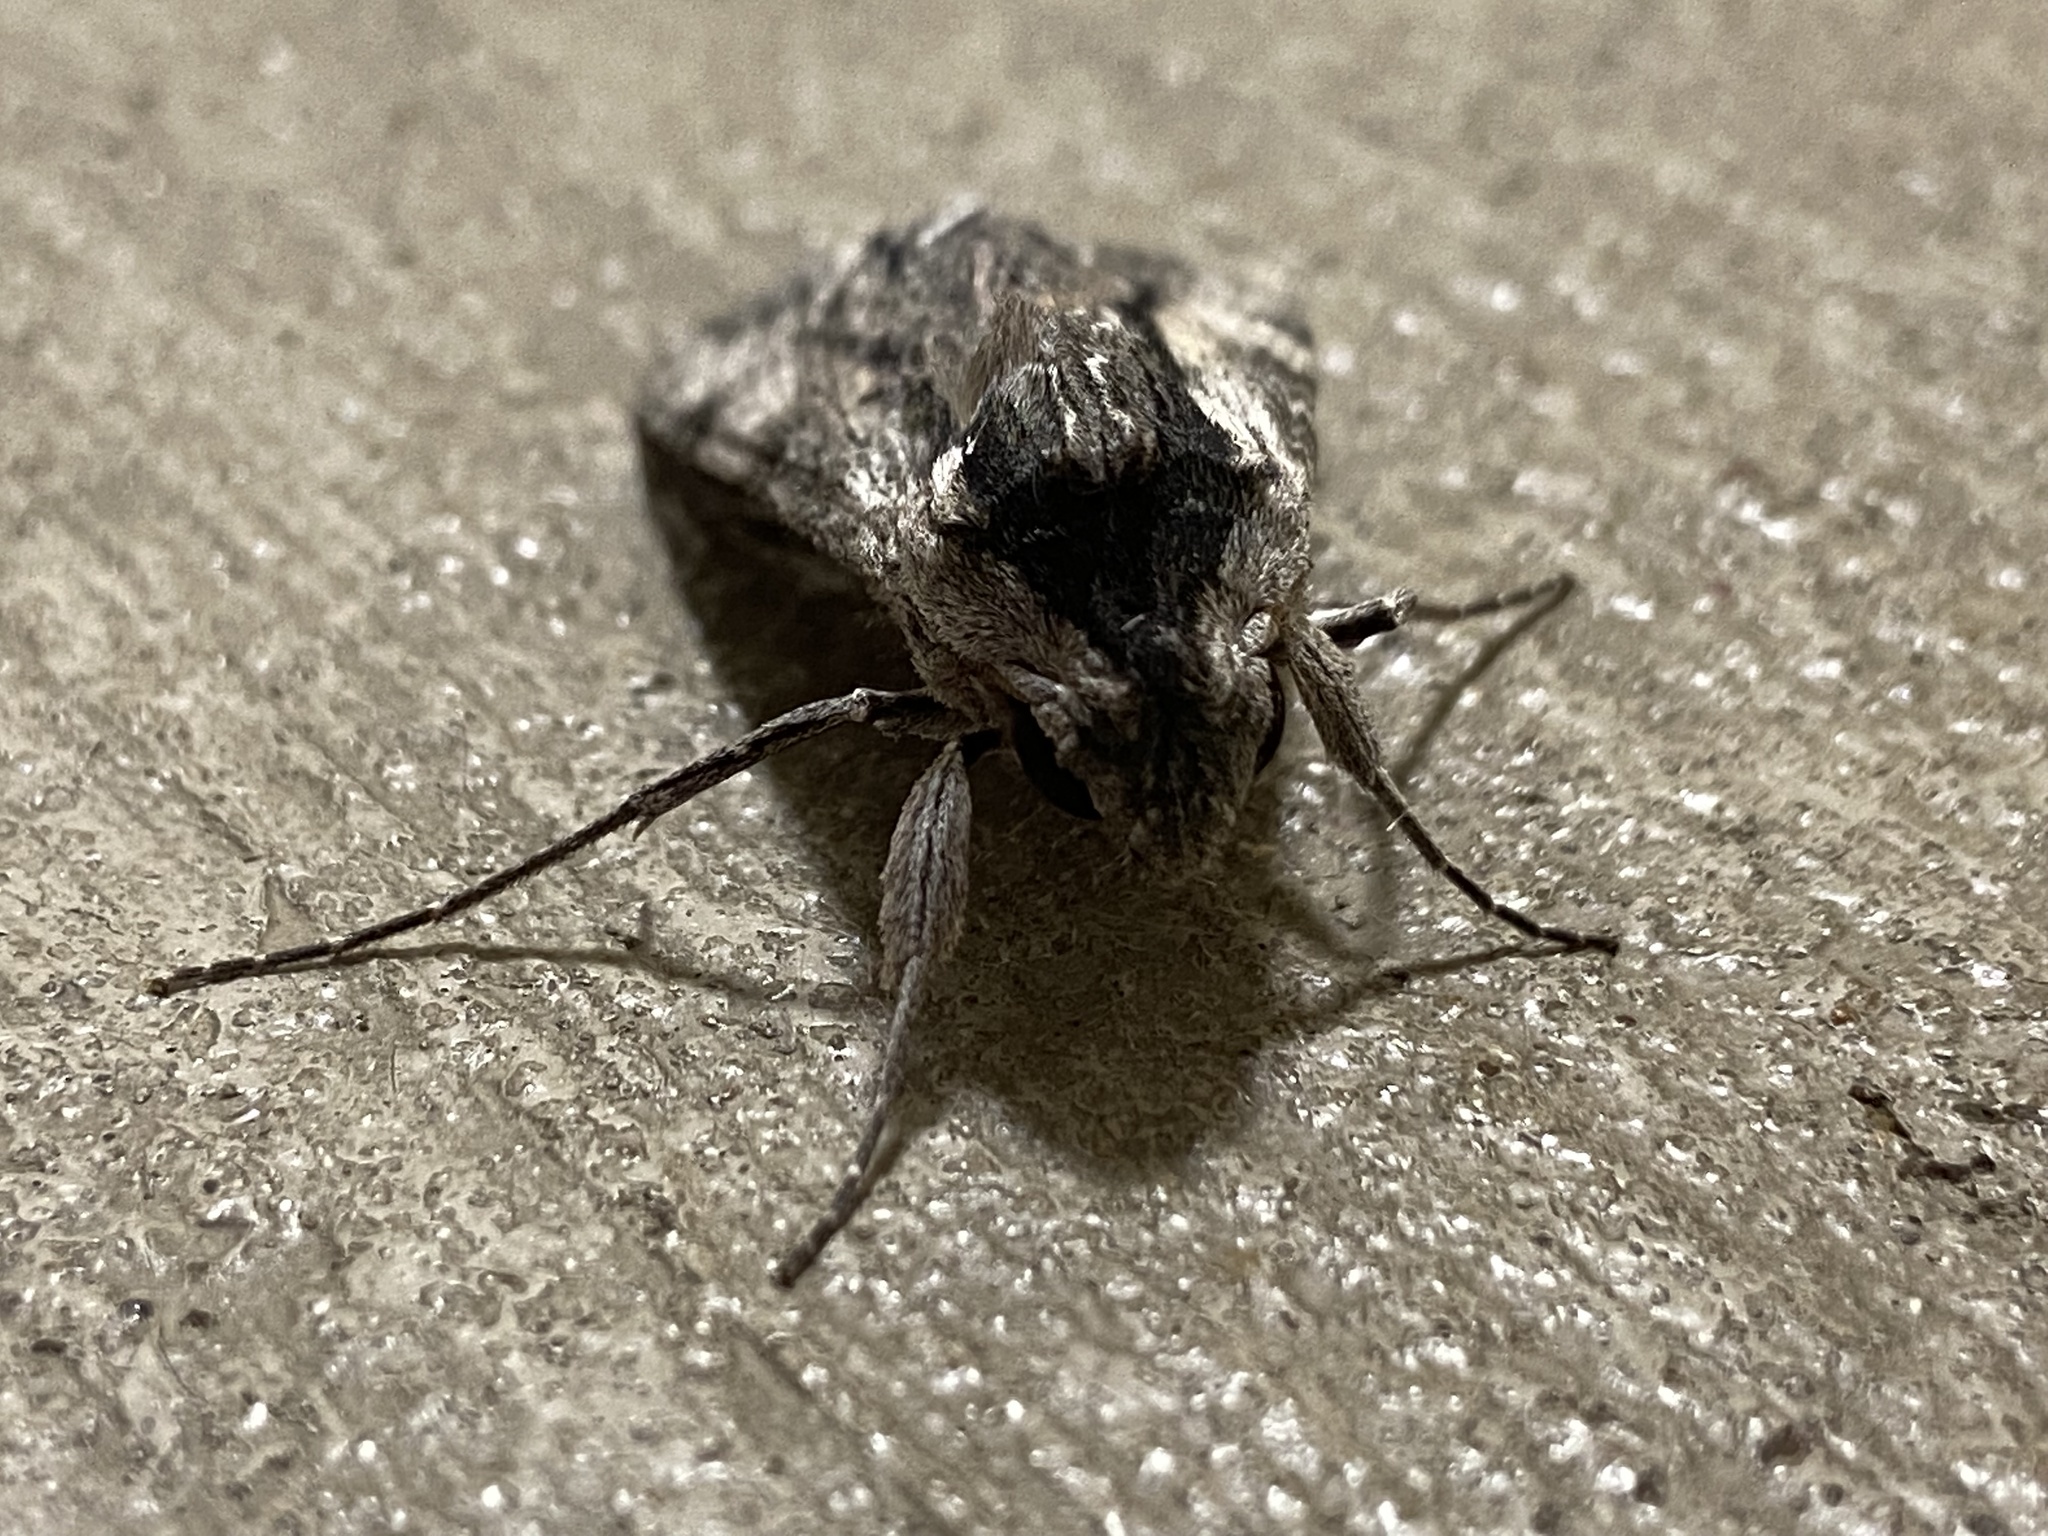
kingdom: Animalia
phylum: Arthropoda
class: Insecta
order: Lepidoptera
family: Sphingidae
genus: Erinnyis
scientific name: Erinnyis obscura
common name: Obscure sphinx
